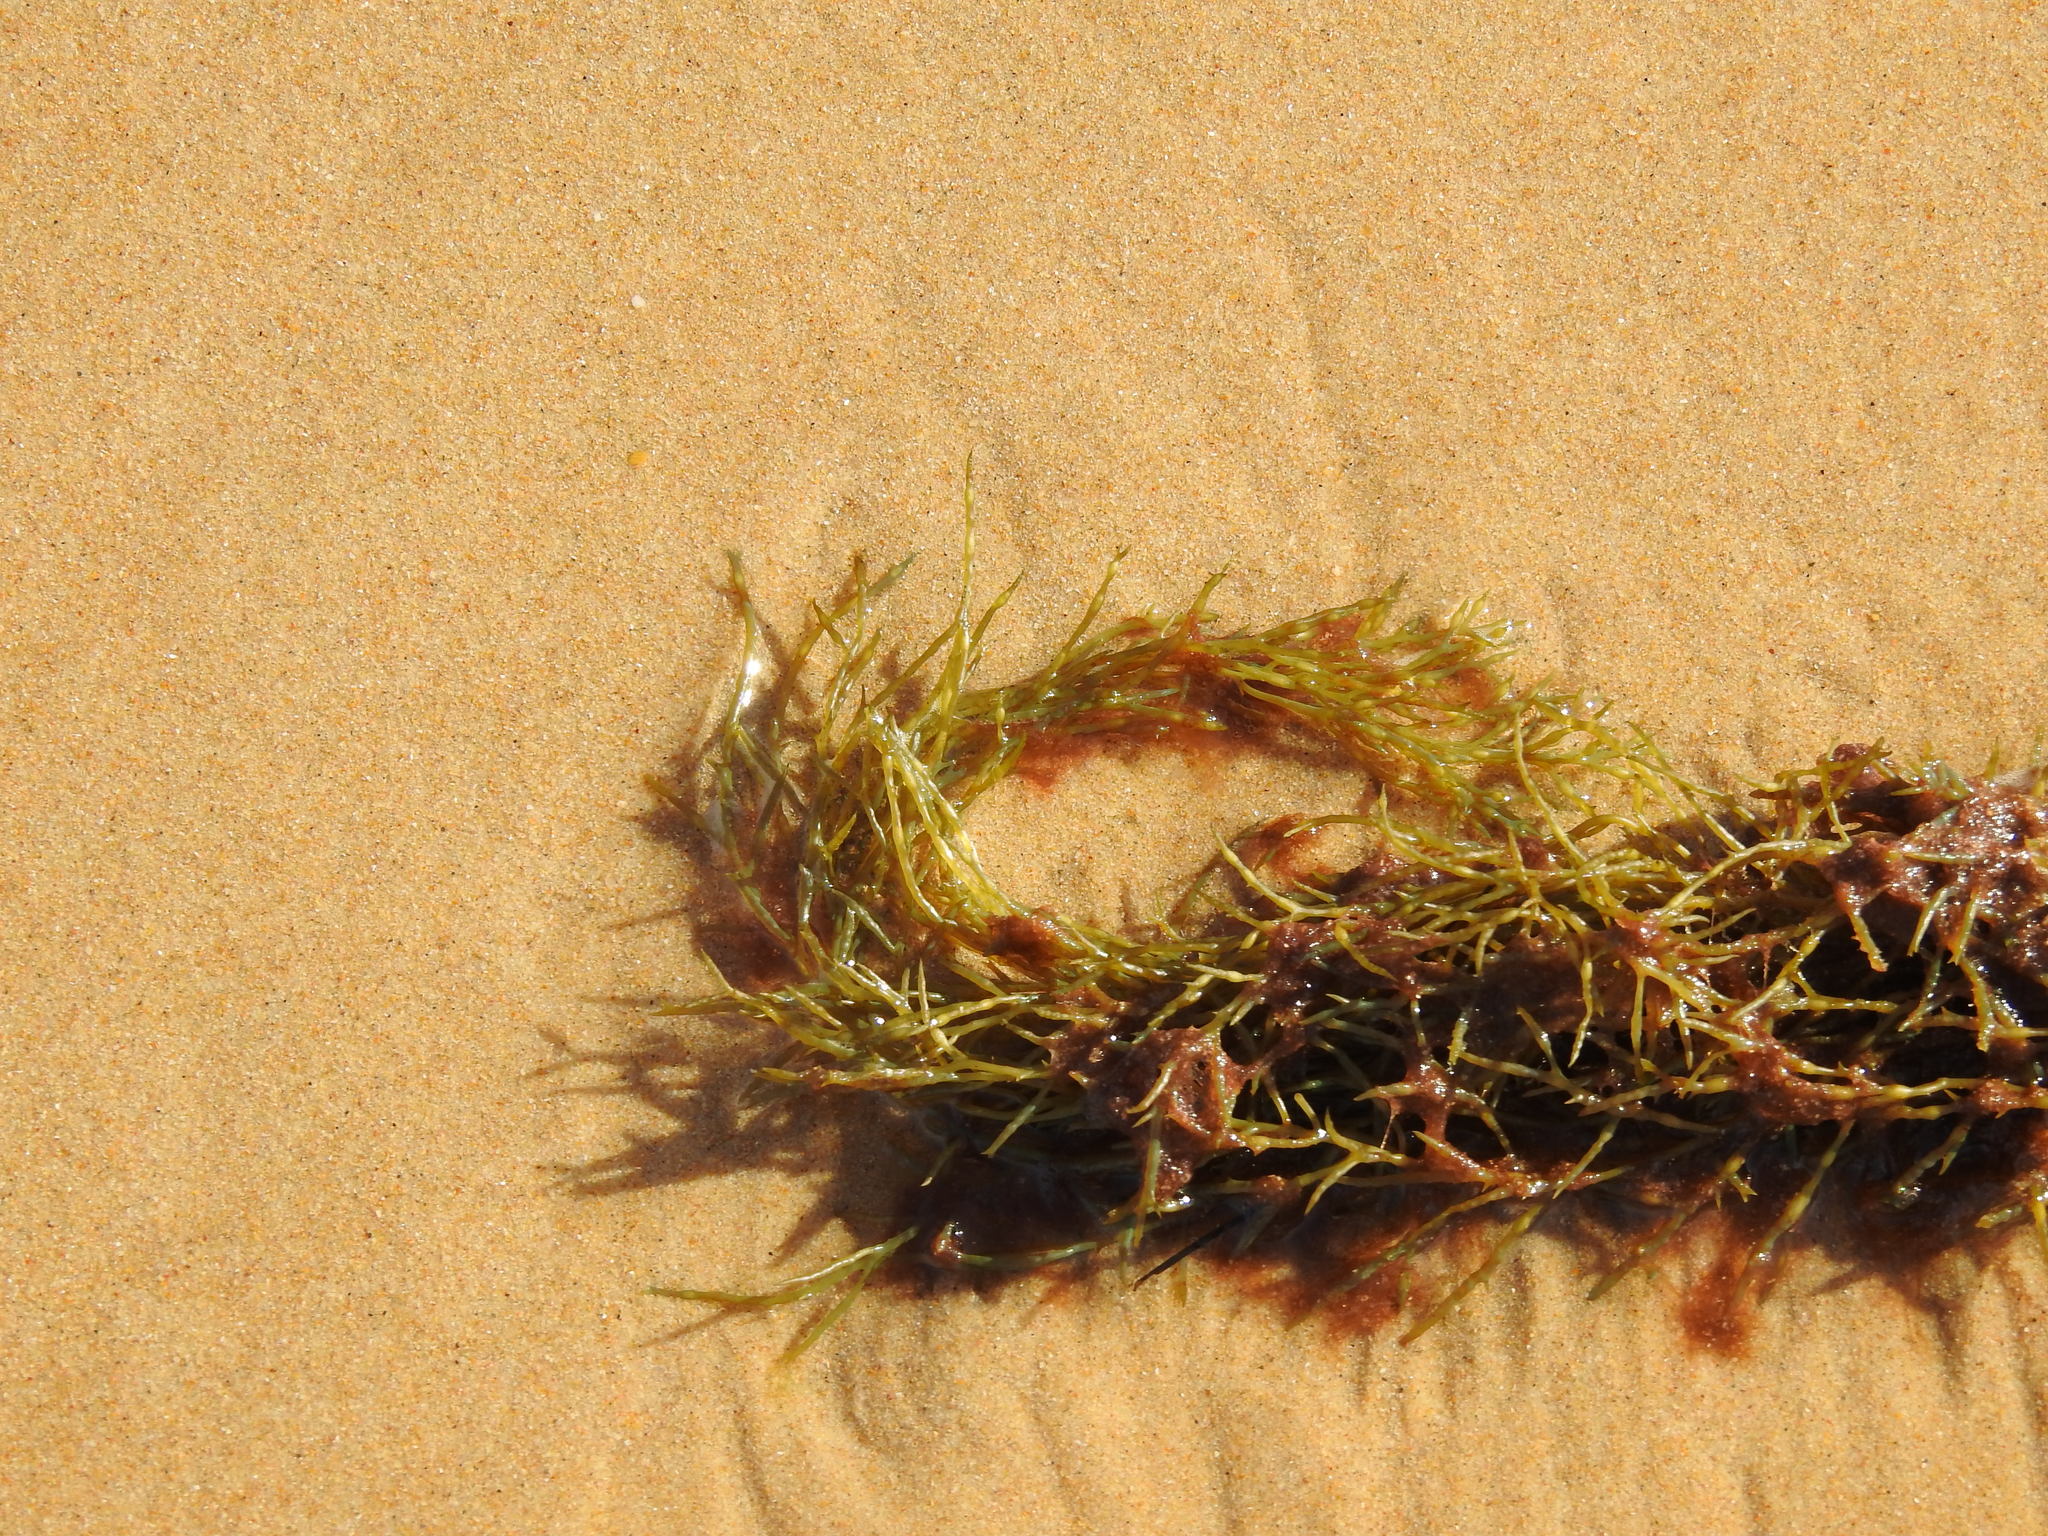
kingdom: Chromista
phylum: Ochrophyta
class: Phaeophyceae
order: Fucales
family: Sargassaceae
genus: Cystoseira
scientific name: Cystoseira Gongolaria usneoides
